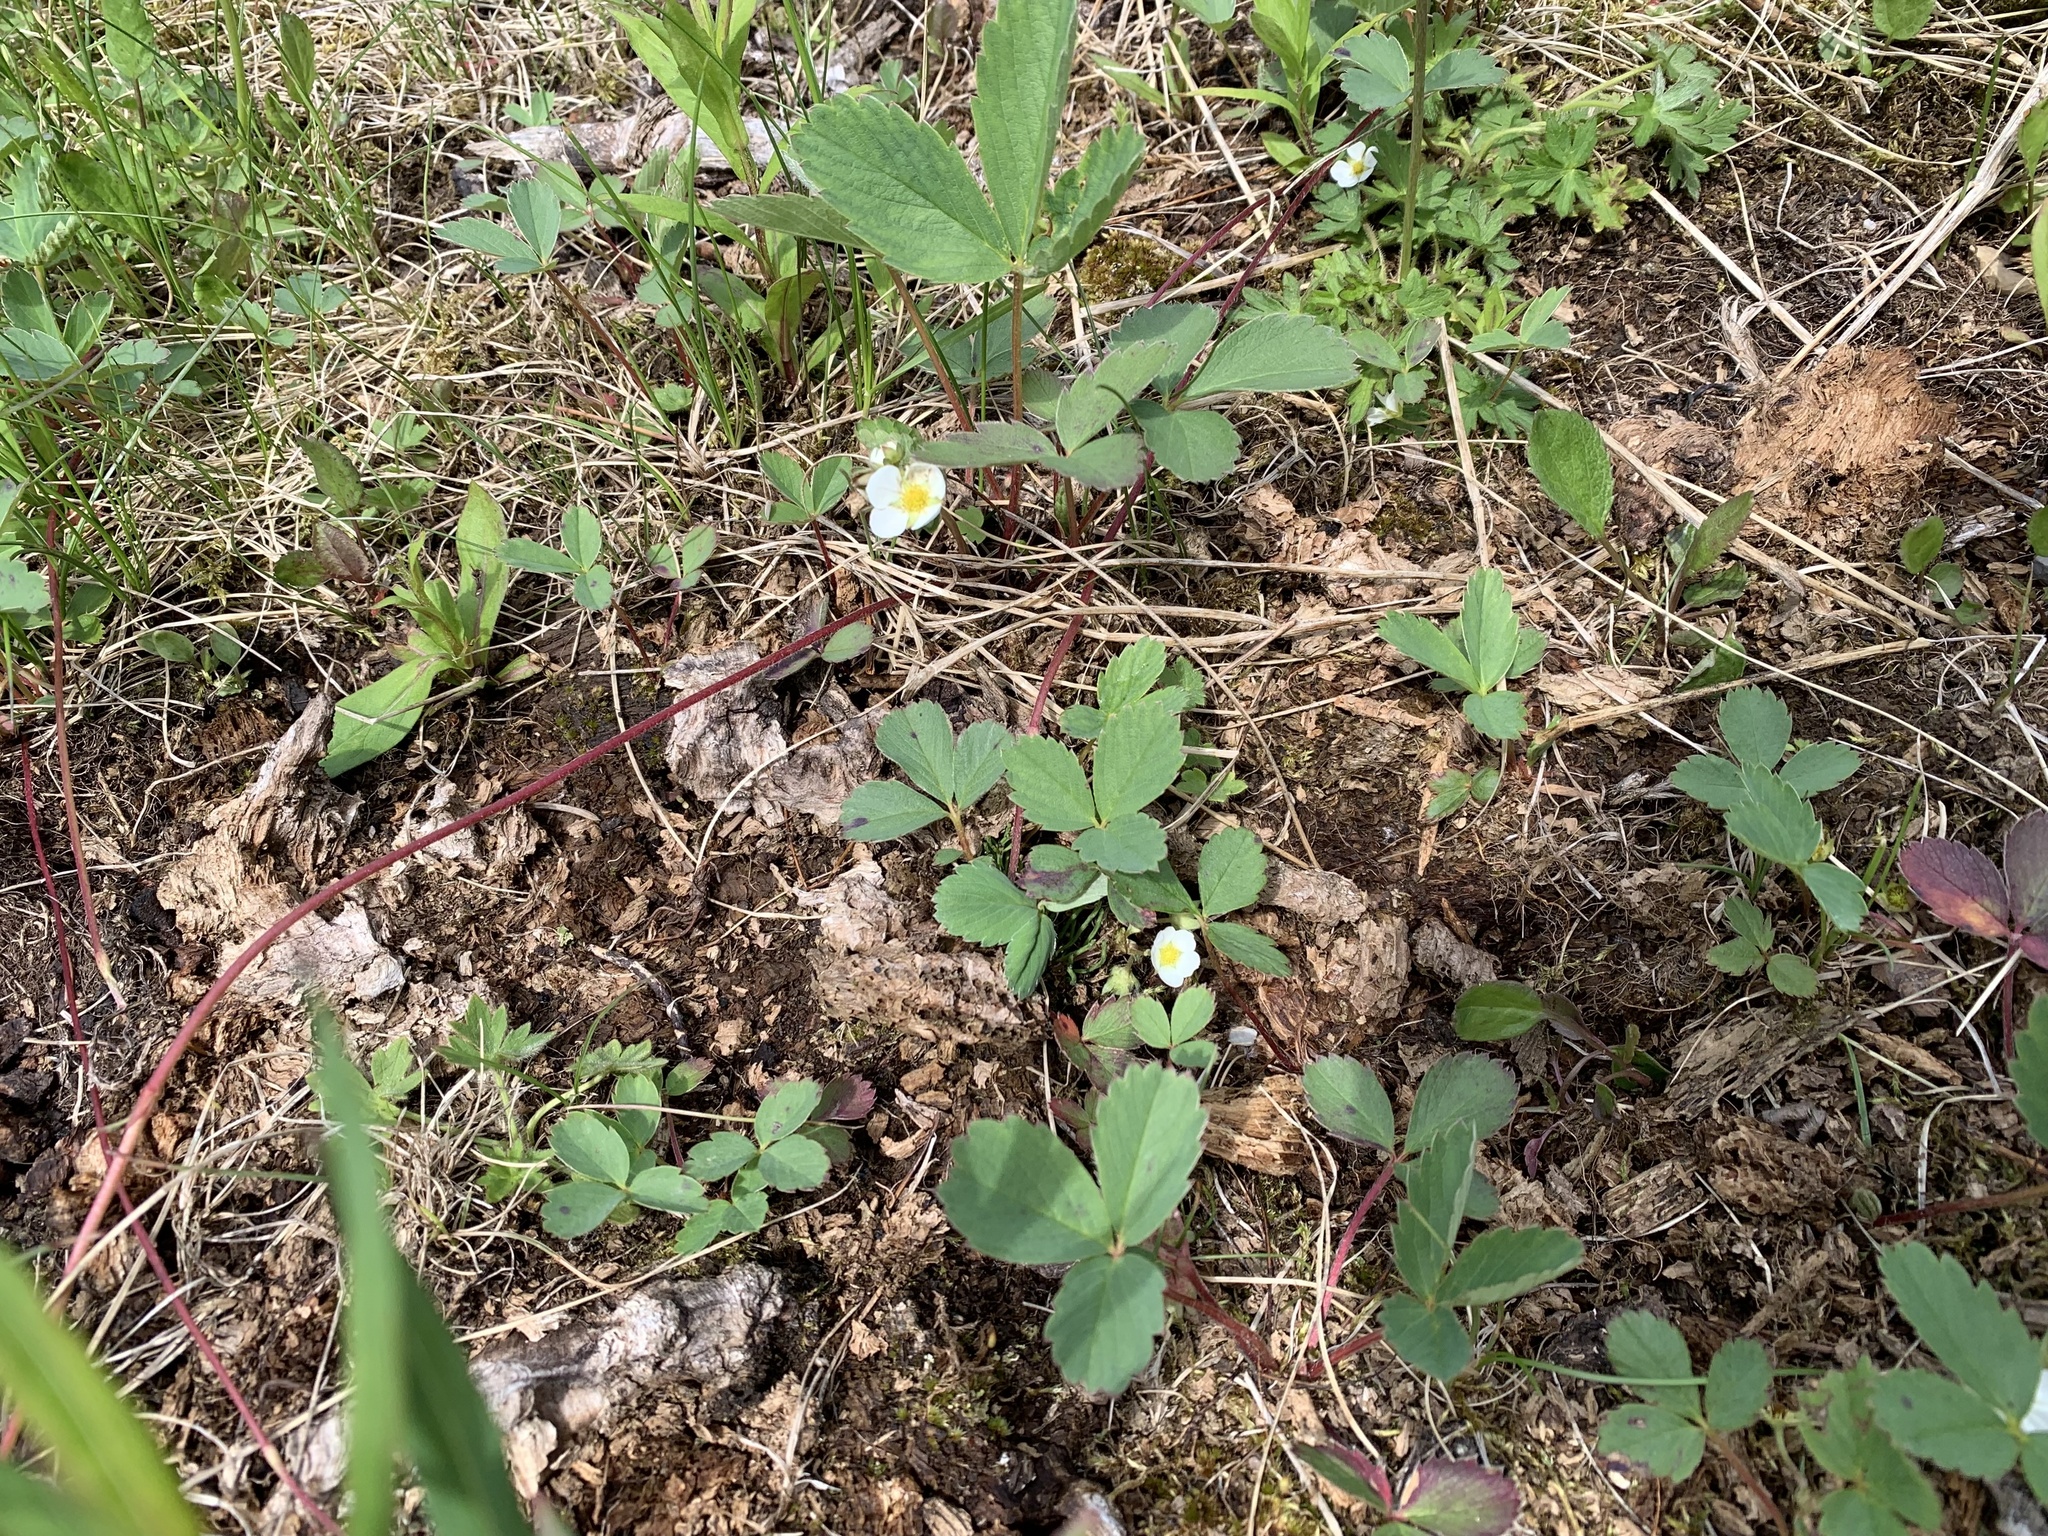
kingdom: Plantae
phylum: Tracheophyta
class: Magnoliopsida
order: Rosales
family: Rosaceae
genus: Fragaria
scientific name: Fragaria virginiana
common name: Thickleaved wild strawberry
